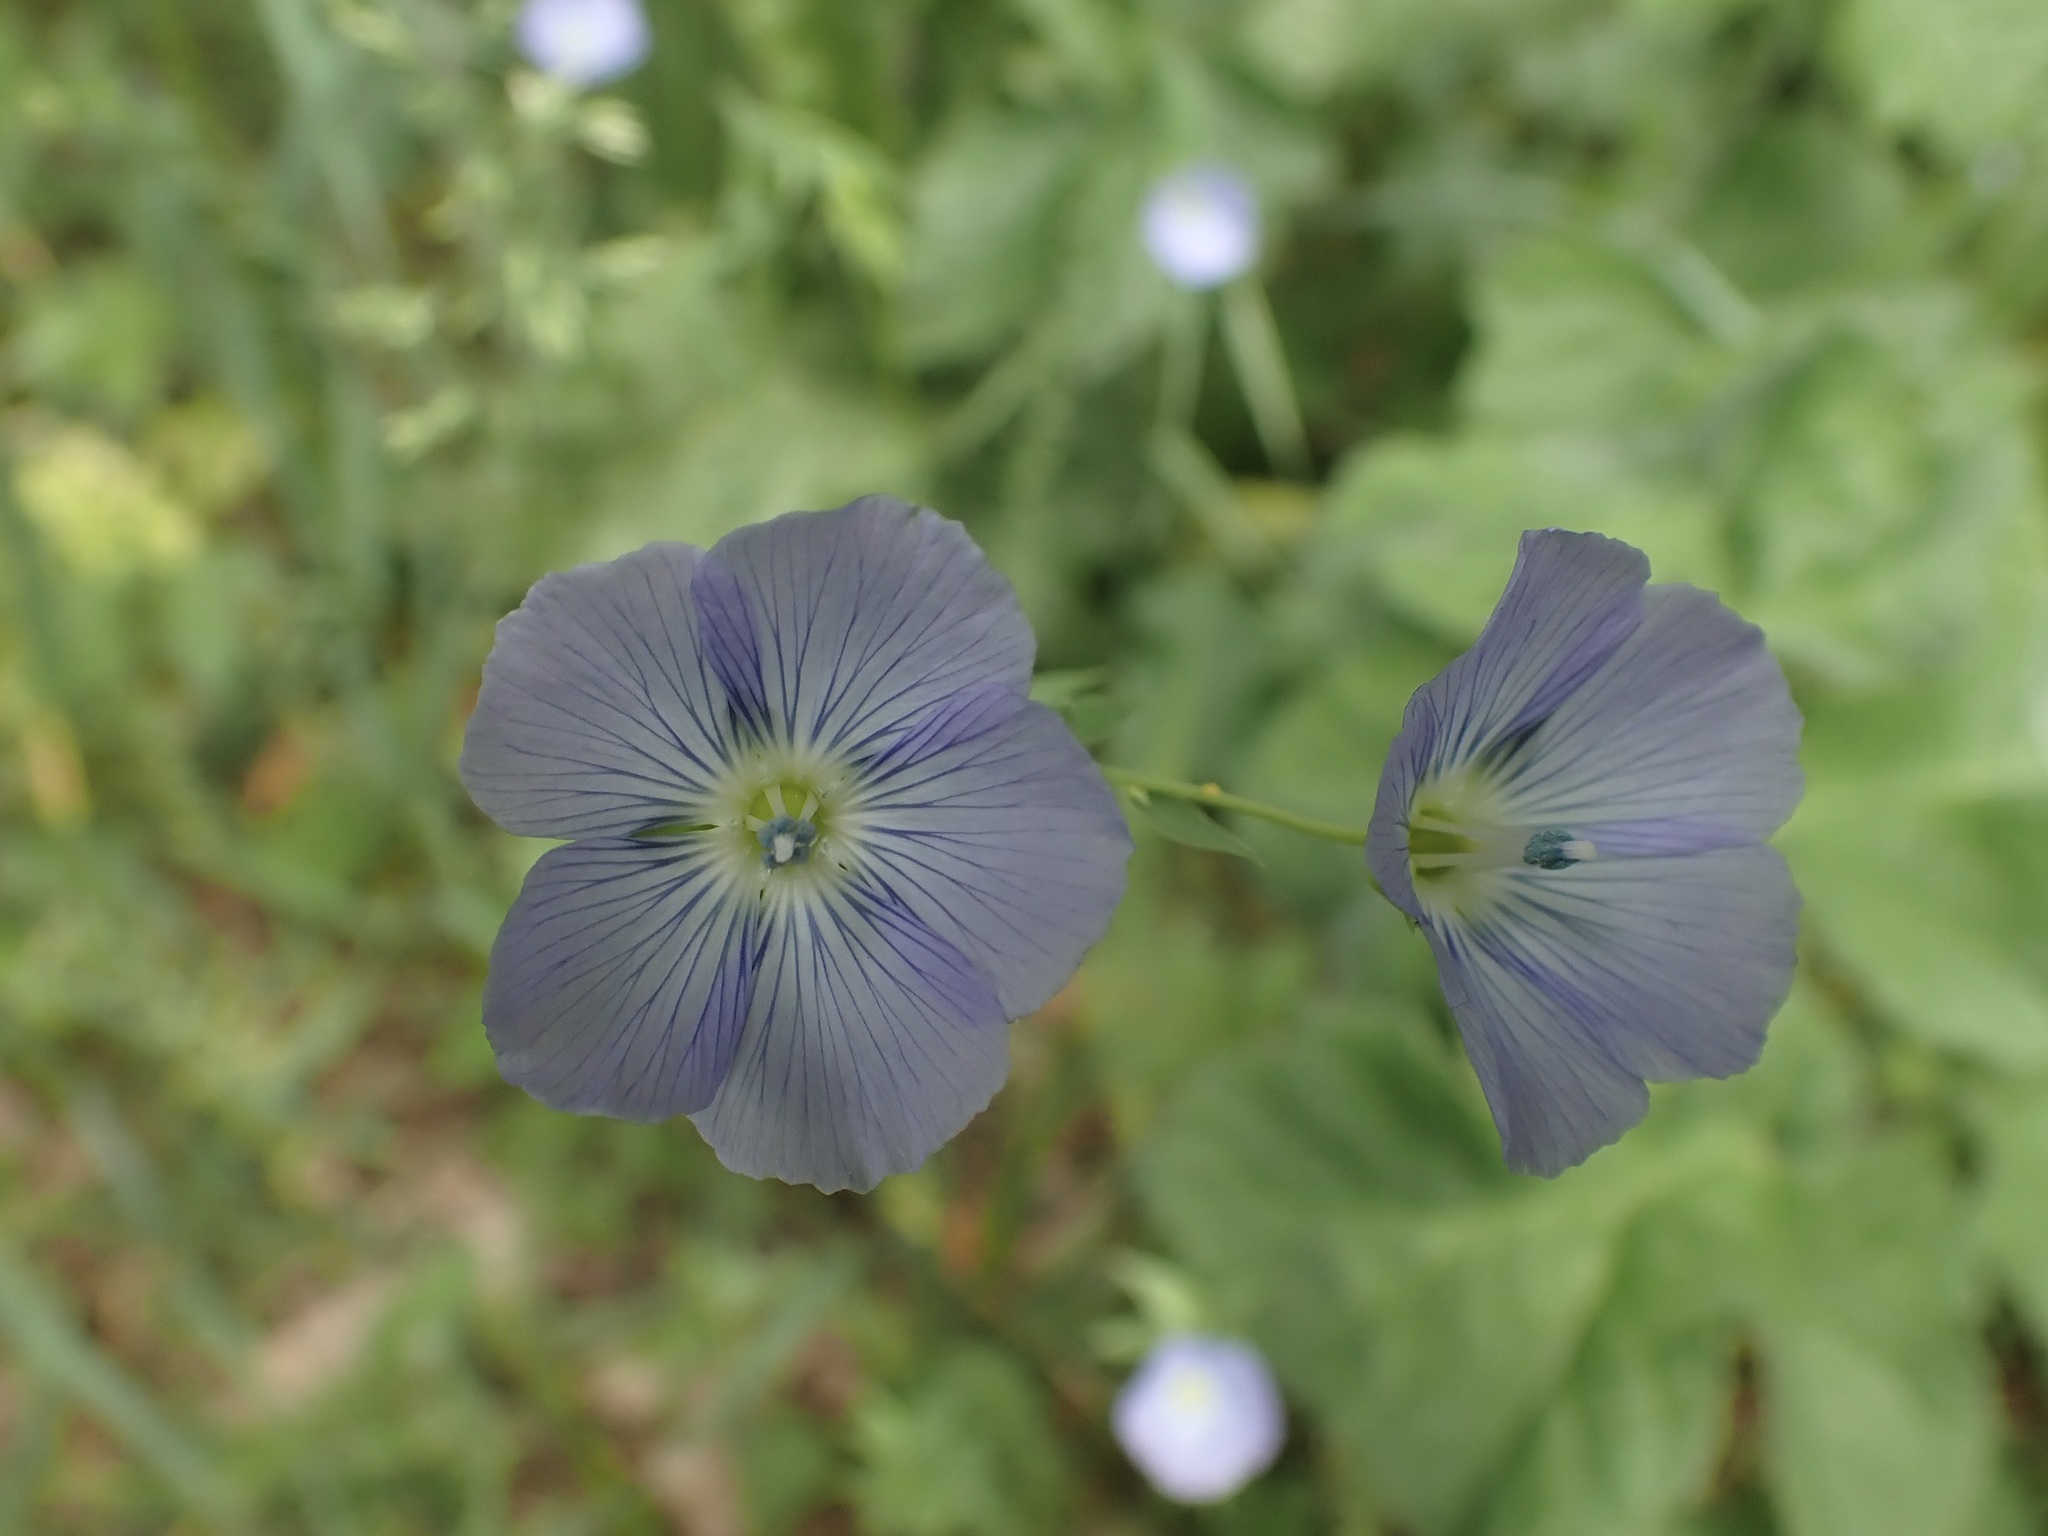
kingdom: Plantae
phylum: Tracheophyta
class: Magnoliopsida
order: Malpighiales
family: Linaceae
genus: Linum
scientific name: Linum usitatissimum
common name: Flax
